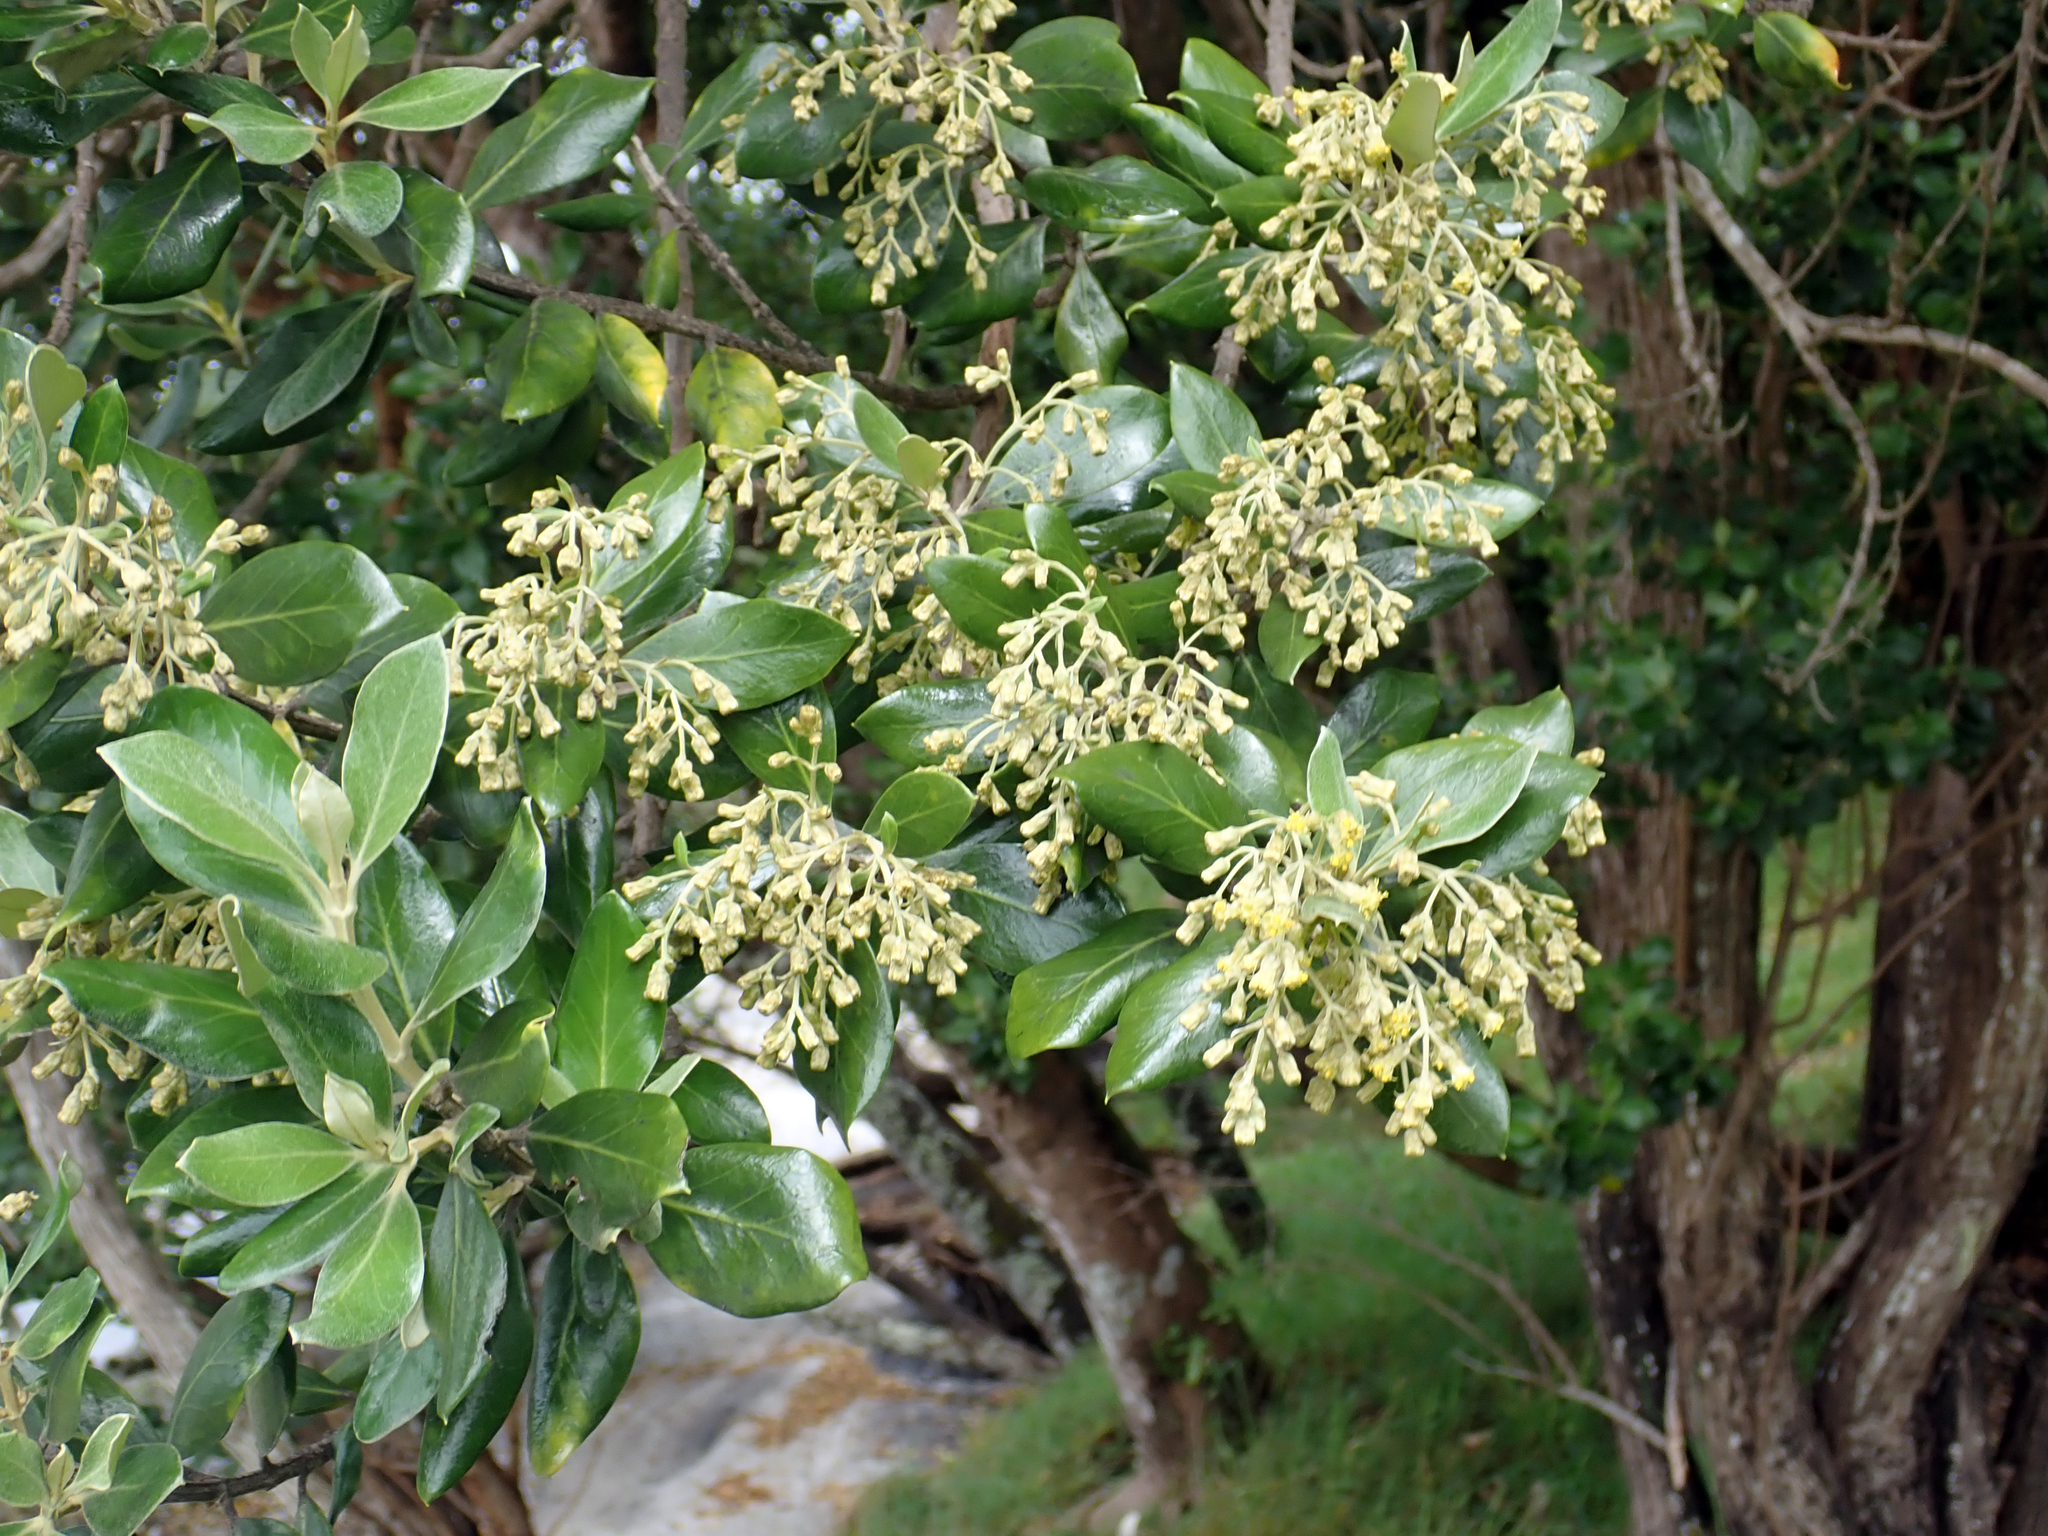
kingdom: Plantae
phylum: Tracheophyta
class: Magnoliopsida
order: Asterales
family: Asteraceae
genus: Olearia
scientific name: Olearia traversiorum
